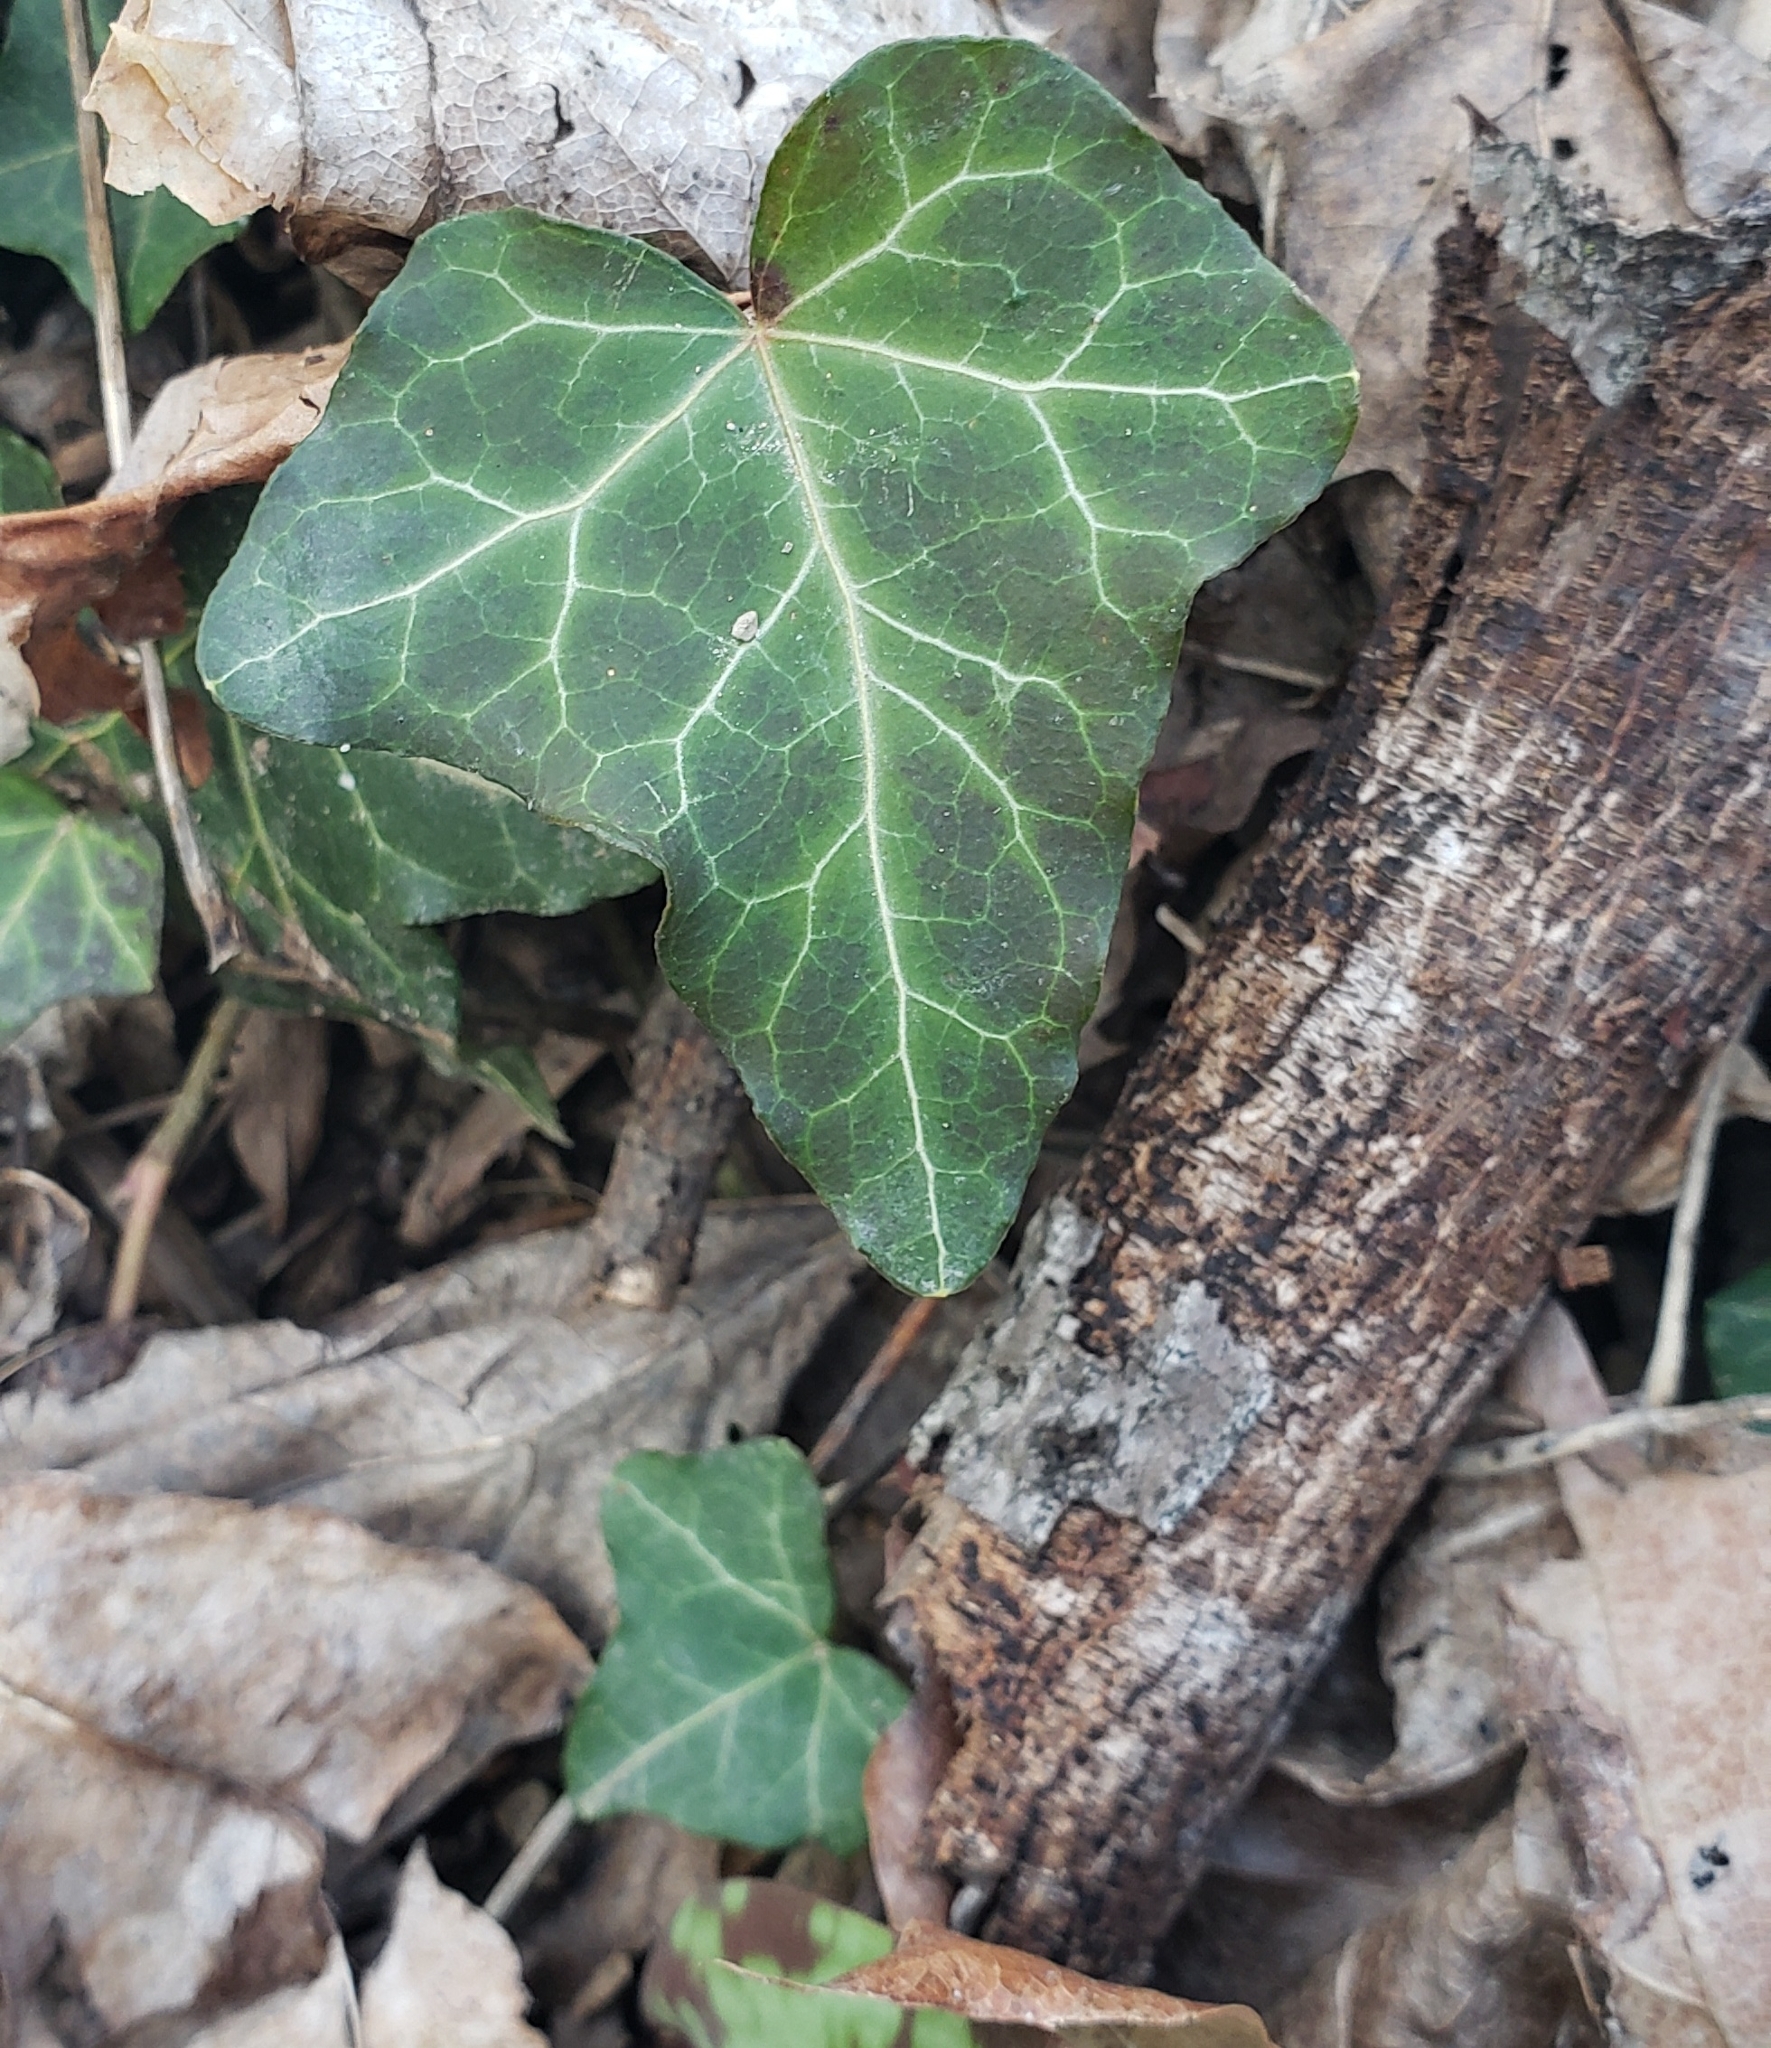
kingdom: Plantae
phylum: Tracheophyta
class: Magnoliopsida
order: Apiales
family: Araliaceae
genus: Hedera
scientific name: Hedera helix
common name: Ivy
